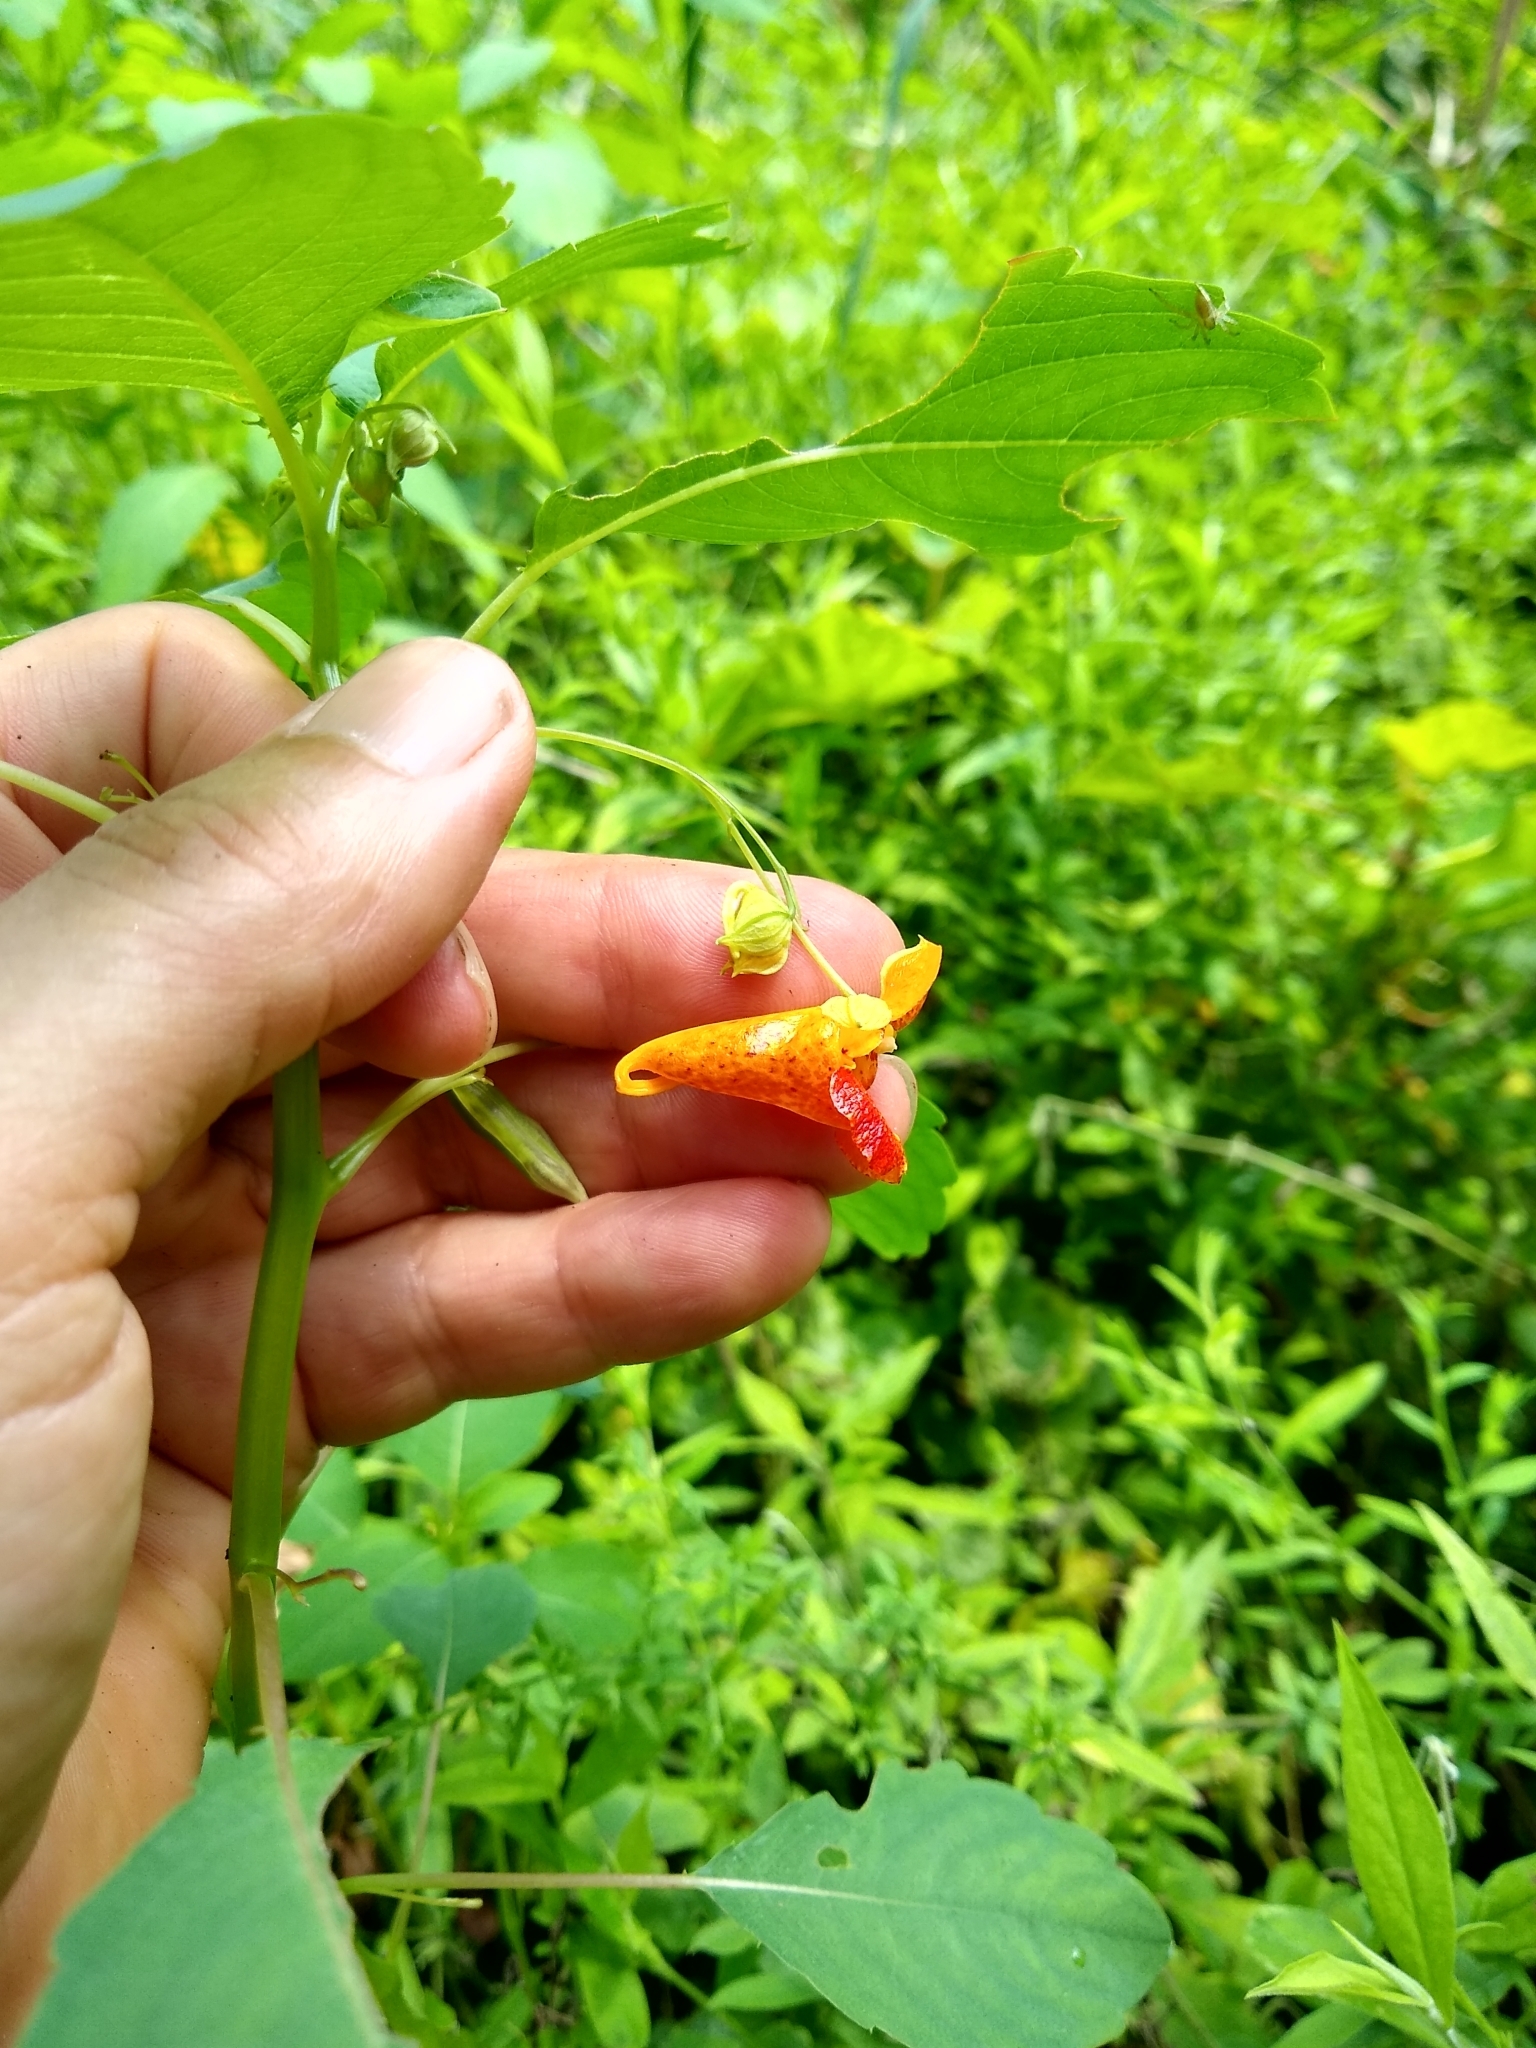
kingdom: Plantae
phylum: Tracheophyta
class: Magnoliopsida
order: Ericales
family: Balsaminaceae
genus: Impatiens
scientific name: Impatiens capensis
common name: Orange balsam
